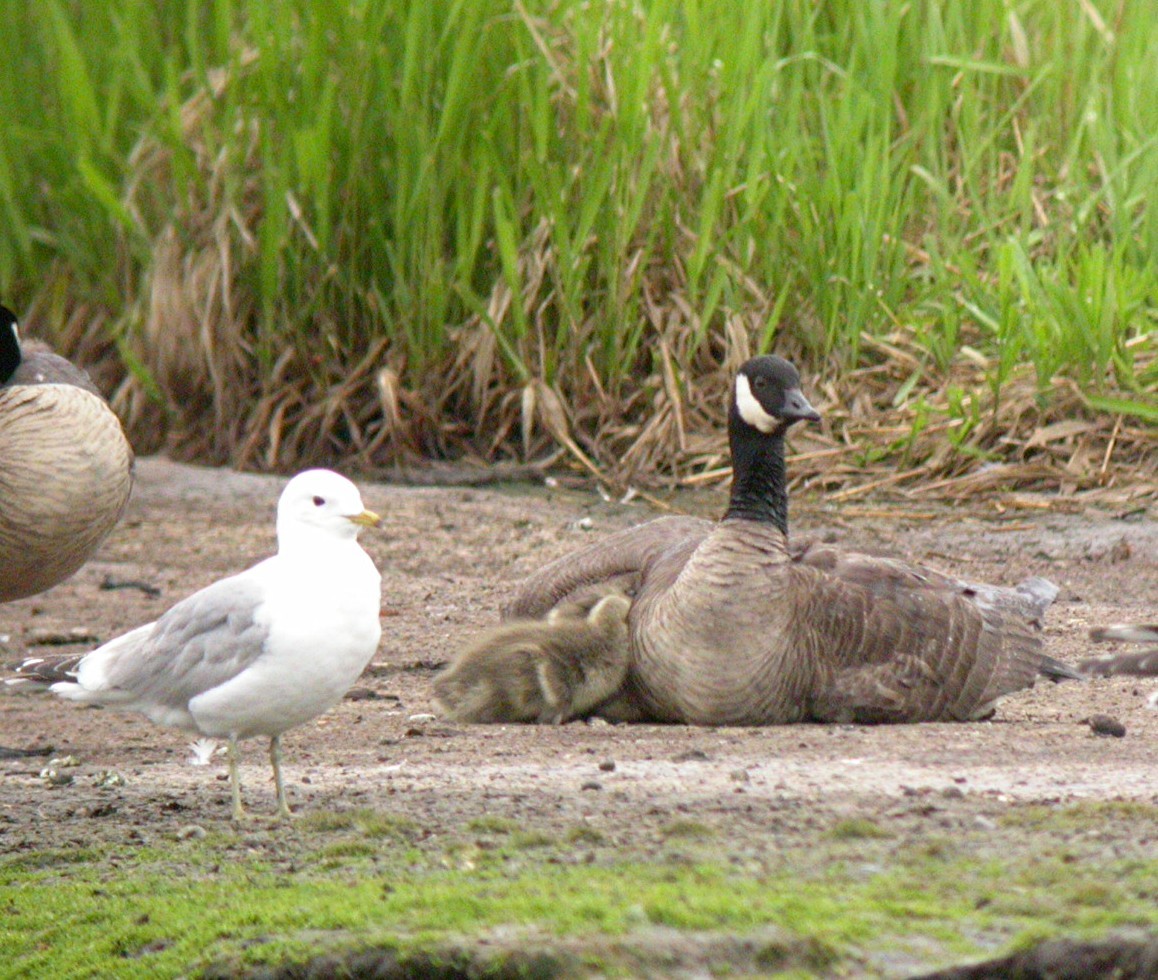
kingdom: Animalia
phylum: Chordata
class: Aves
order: Anseriformes
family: Anatidae
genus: Branta
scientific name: Branta canadensis
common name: Canada goose
